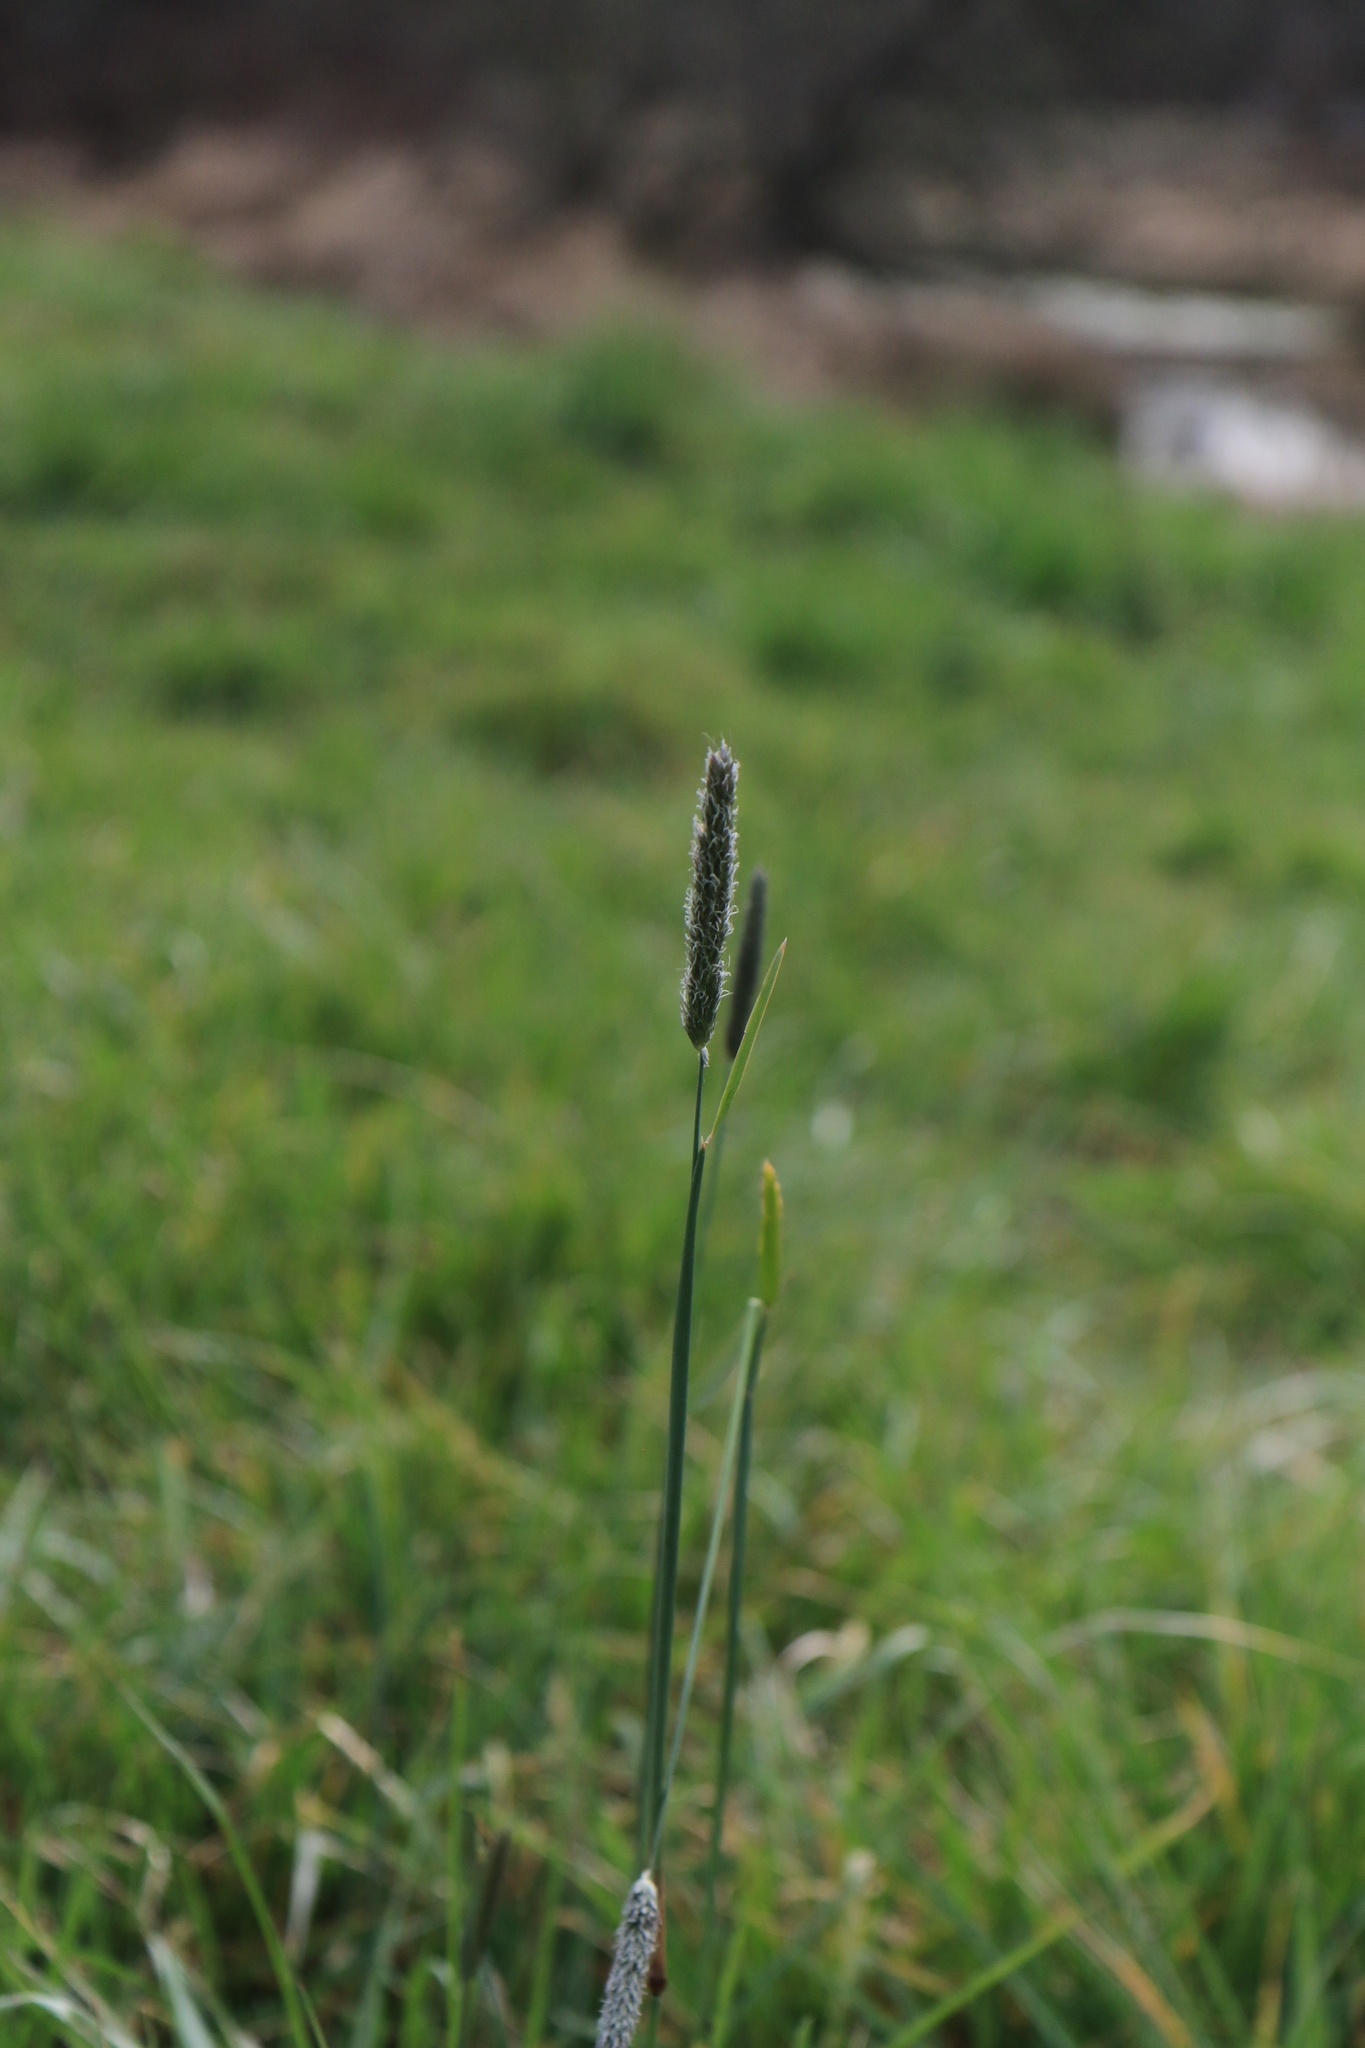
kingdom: Plantae
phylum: Tracheophyta
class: Liliopsida
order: Poales
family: Poaceae
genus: Alopecurus
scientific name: Alopecurus pratensis
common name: Meadow foxtail
